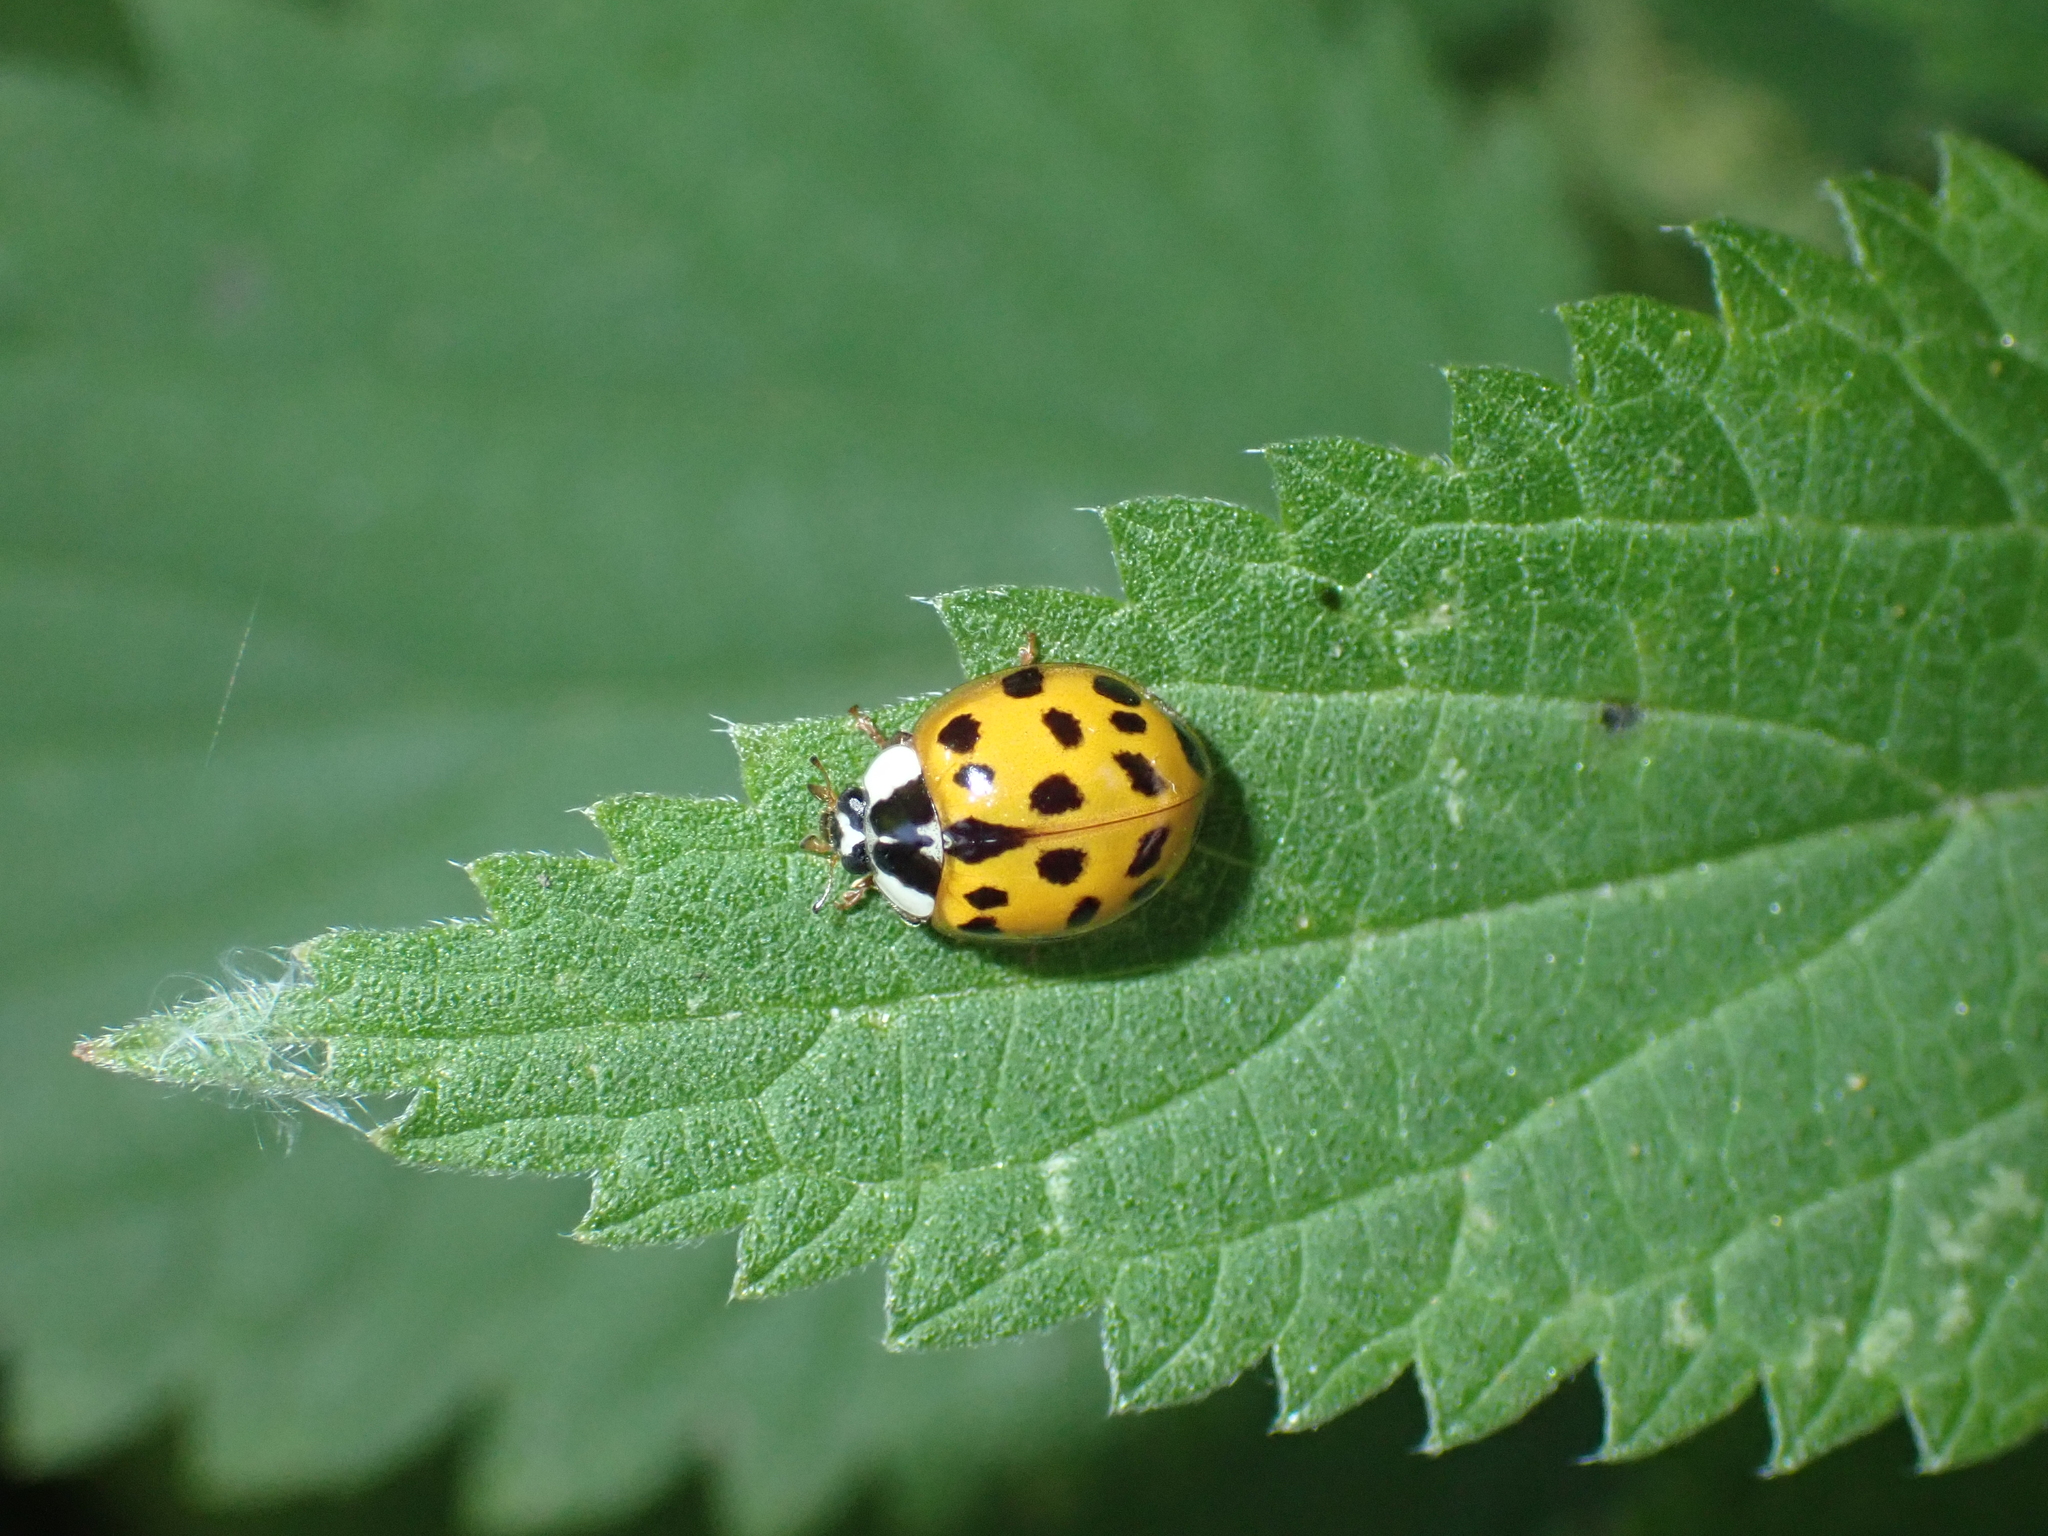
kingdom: Animalia
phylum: Arthropoda
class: Insecta
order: Coleoptera
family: Coccinellidae
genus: Harmonia
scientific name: Harmonia axyridis
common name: Harlequin ladybird
